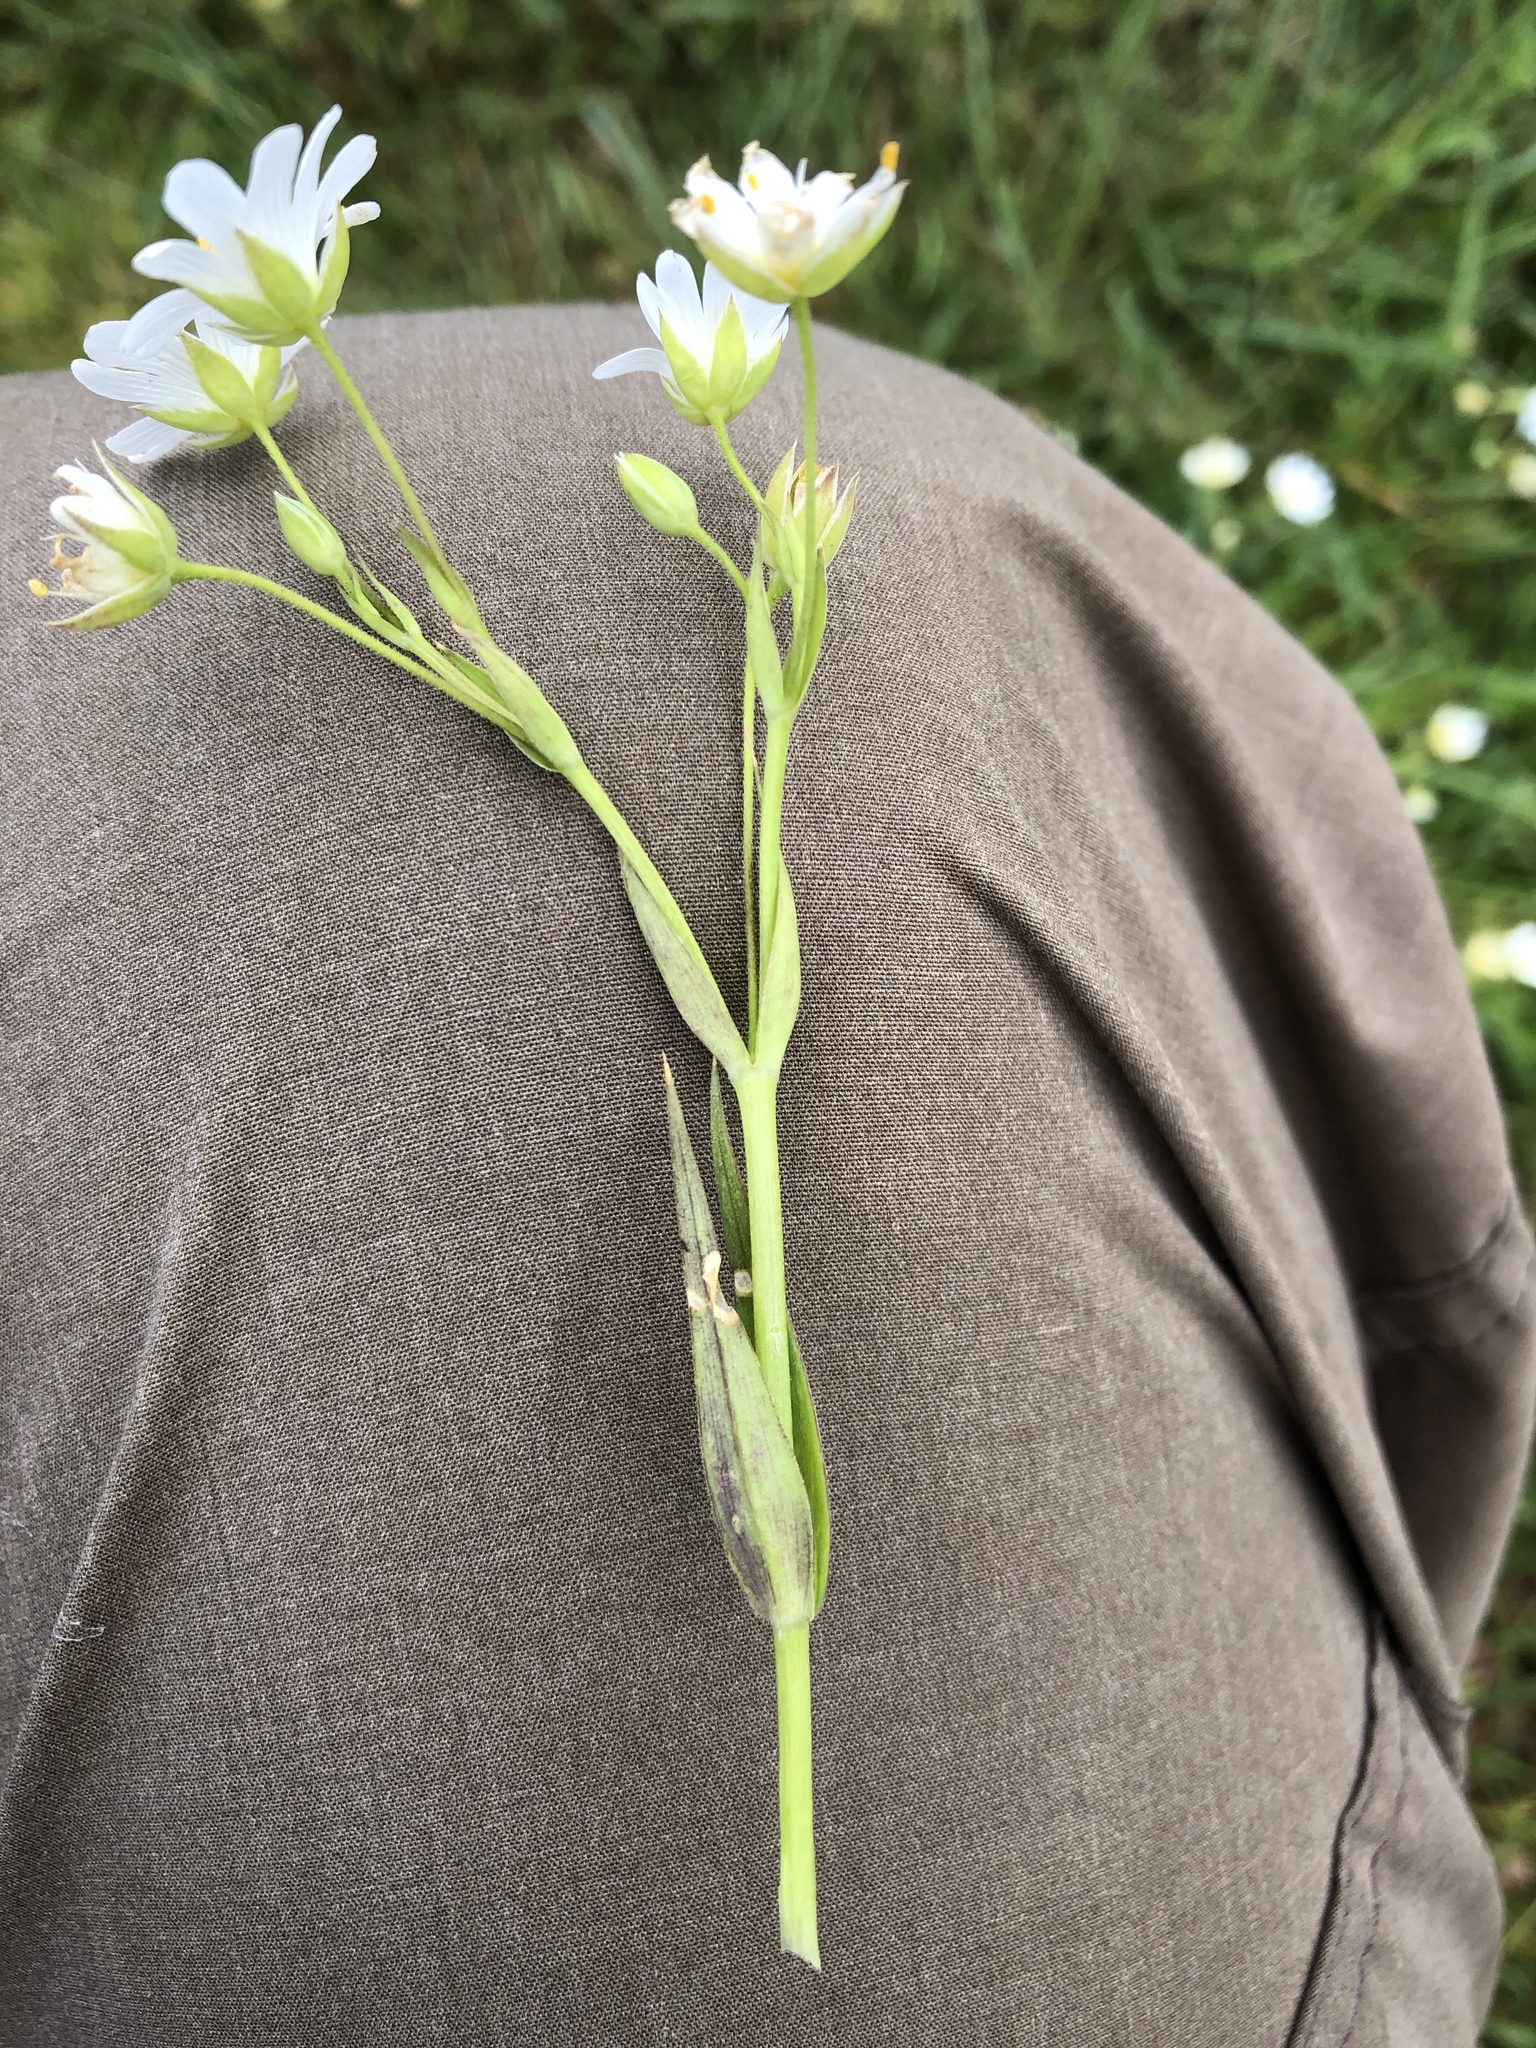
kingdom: Plantae
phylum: Tracheophyta
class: Magnoliopsida
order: Caryophyllales
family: Caryophyllaceae
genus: Rabelera
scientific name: Rabelera holostea
